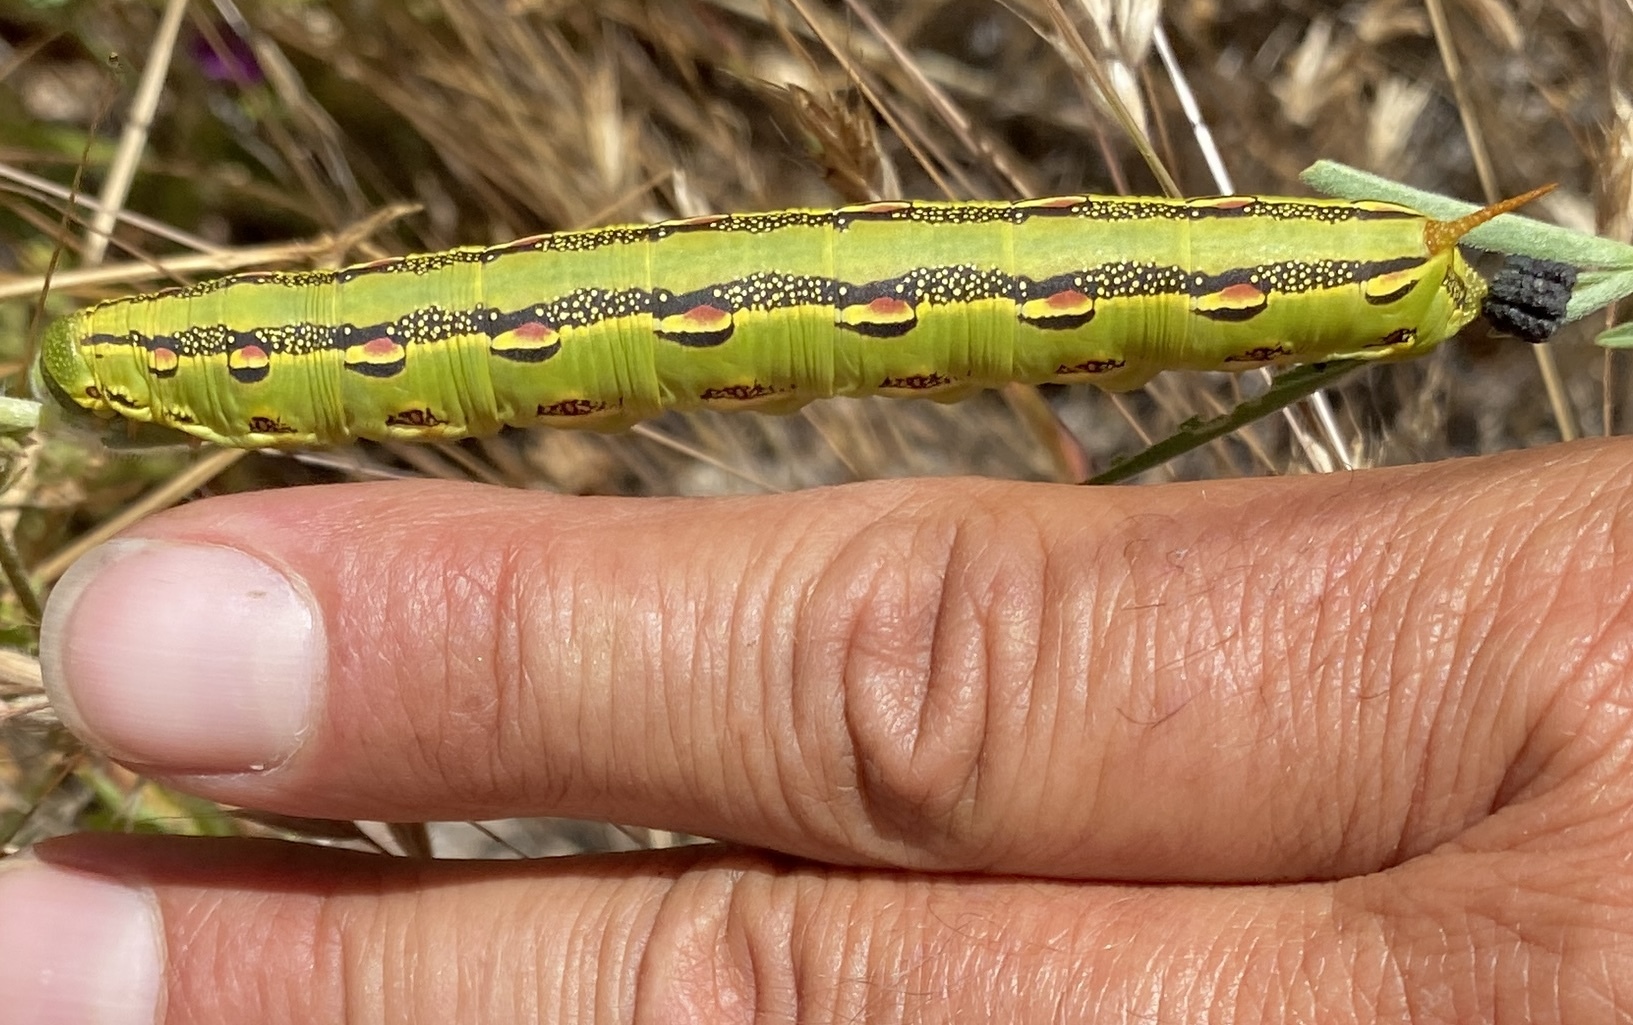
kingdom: Animalia
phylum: Arthropoda
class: Insecta
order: Lepidoptera
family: Sphingidae
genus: Hyles
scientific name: Hyles lineata
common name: White-lined sphinx
